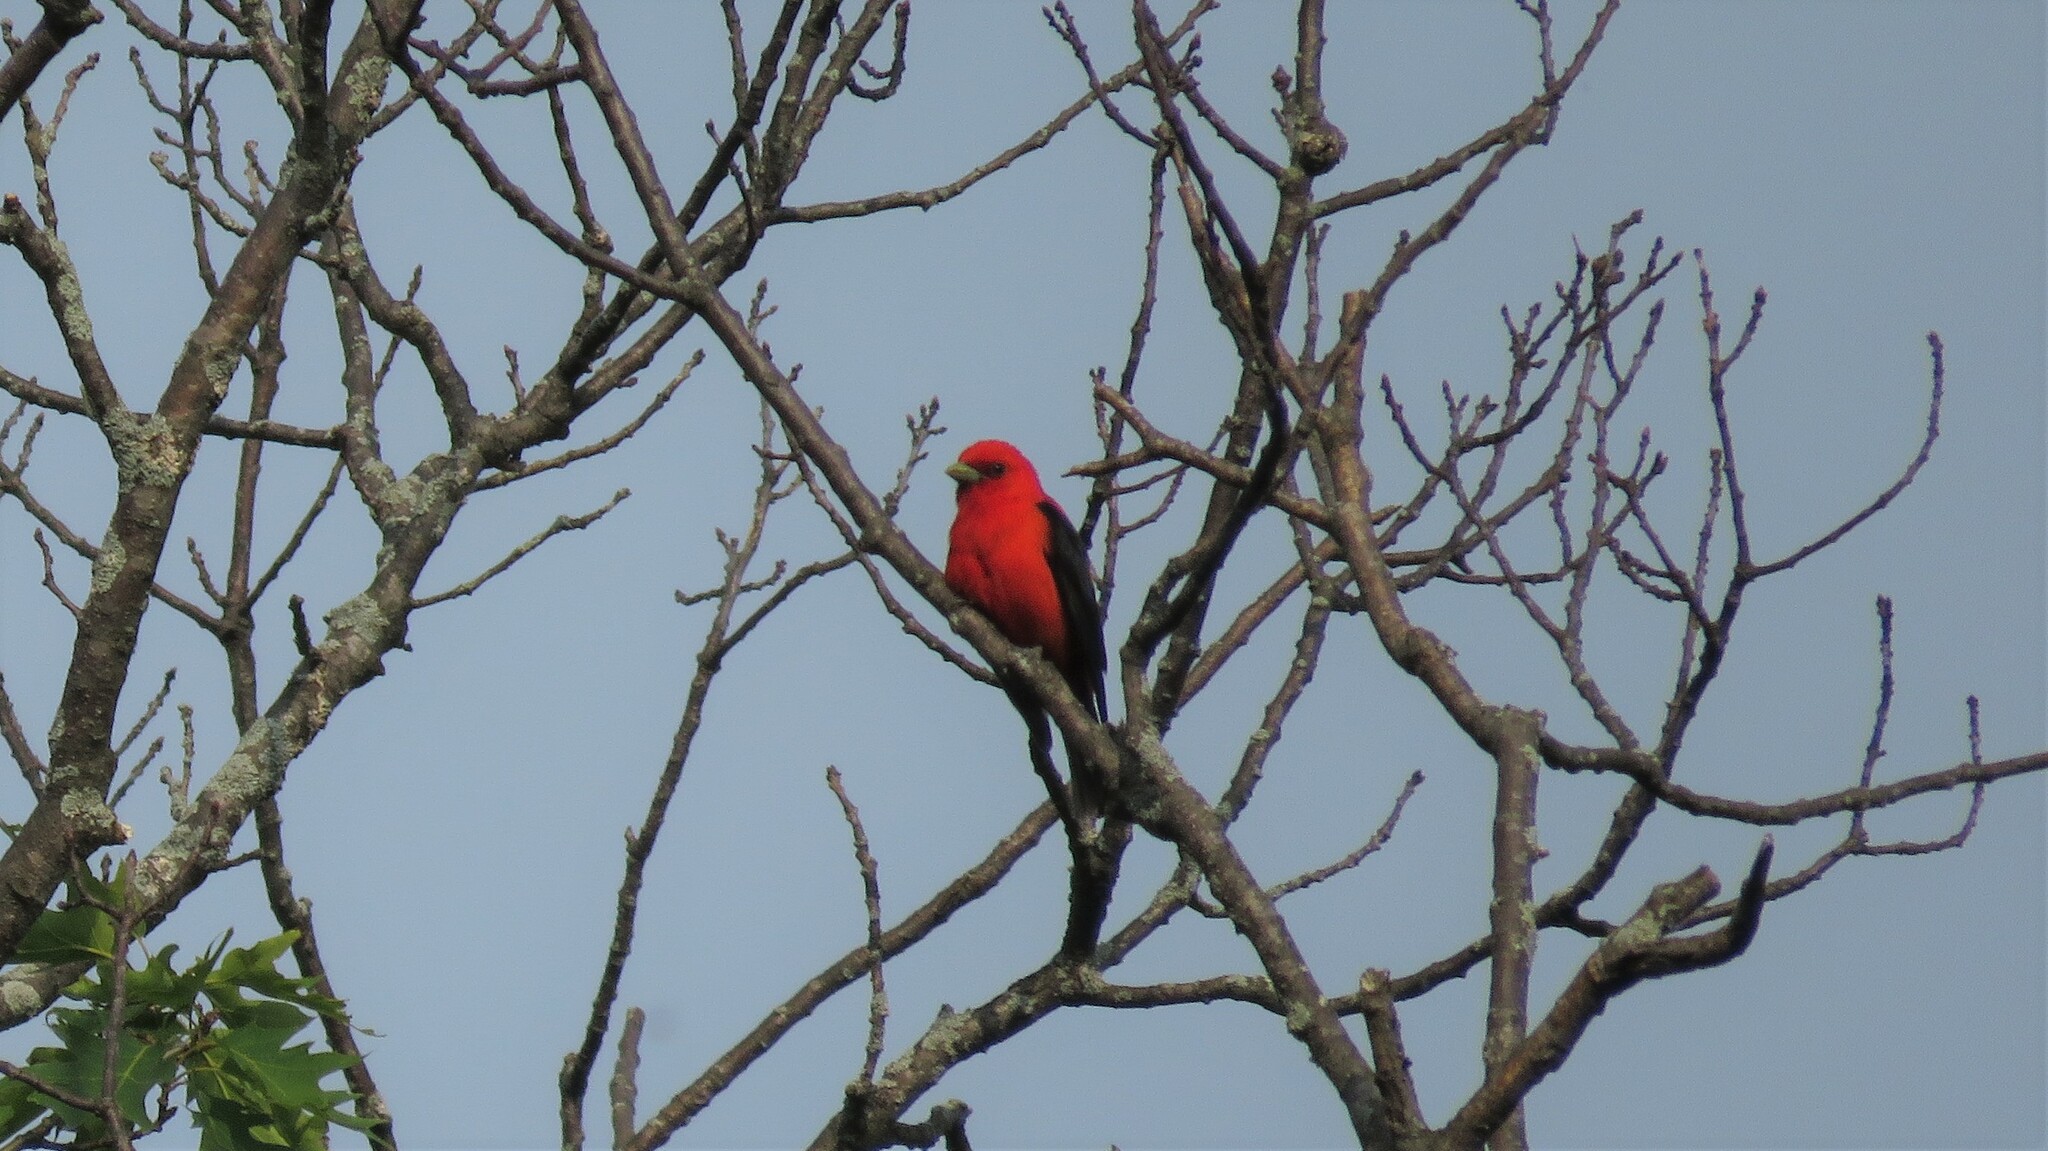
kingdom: Animalia
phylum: Chordata
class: Aves
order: Passeriformes
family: Cardinalidae
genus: Piranga
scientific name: Piranga olivacea
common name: Scarlet tanager
